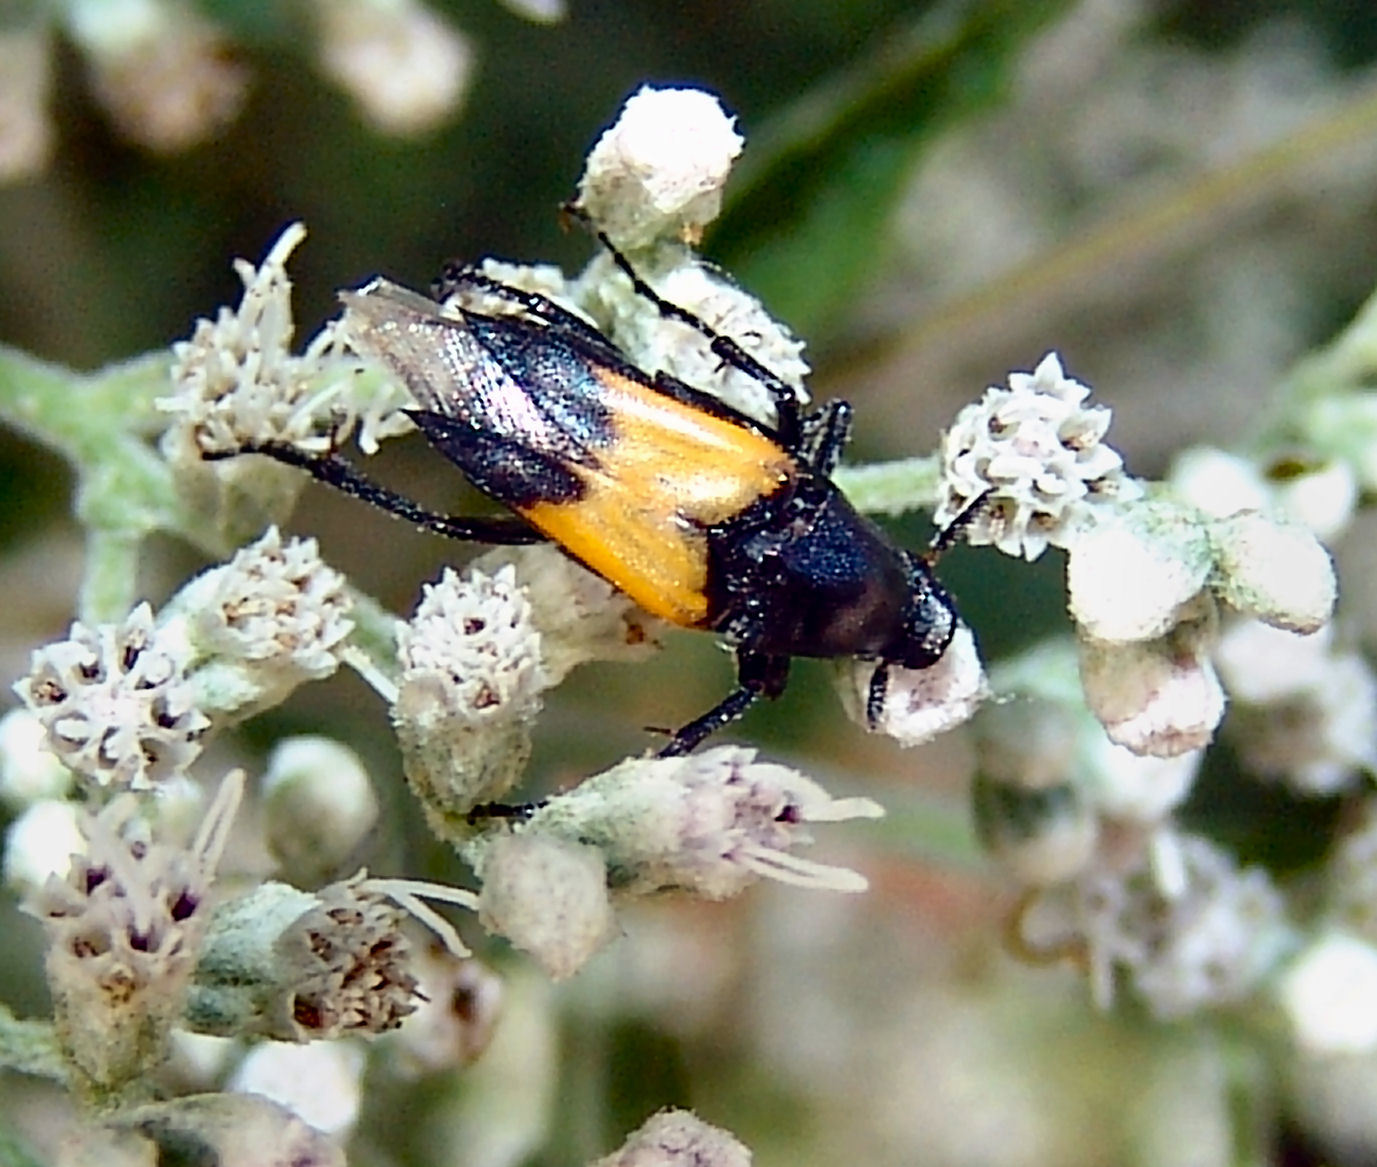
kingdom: Animalia
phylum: Arthropoda
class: Insecta
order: Coleoptera
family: Ripiphoridae
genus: Macrosiagon
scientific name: Macrosiagon dimidiata
